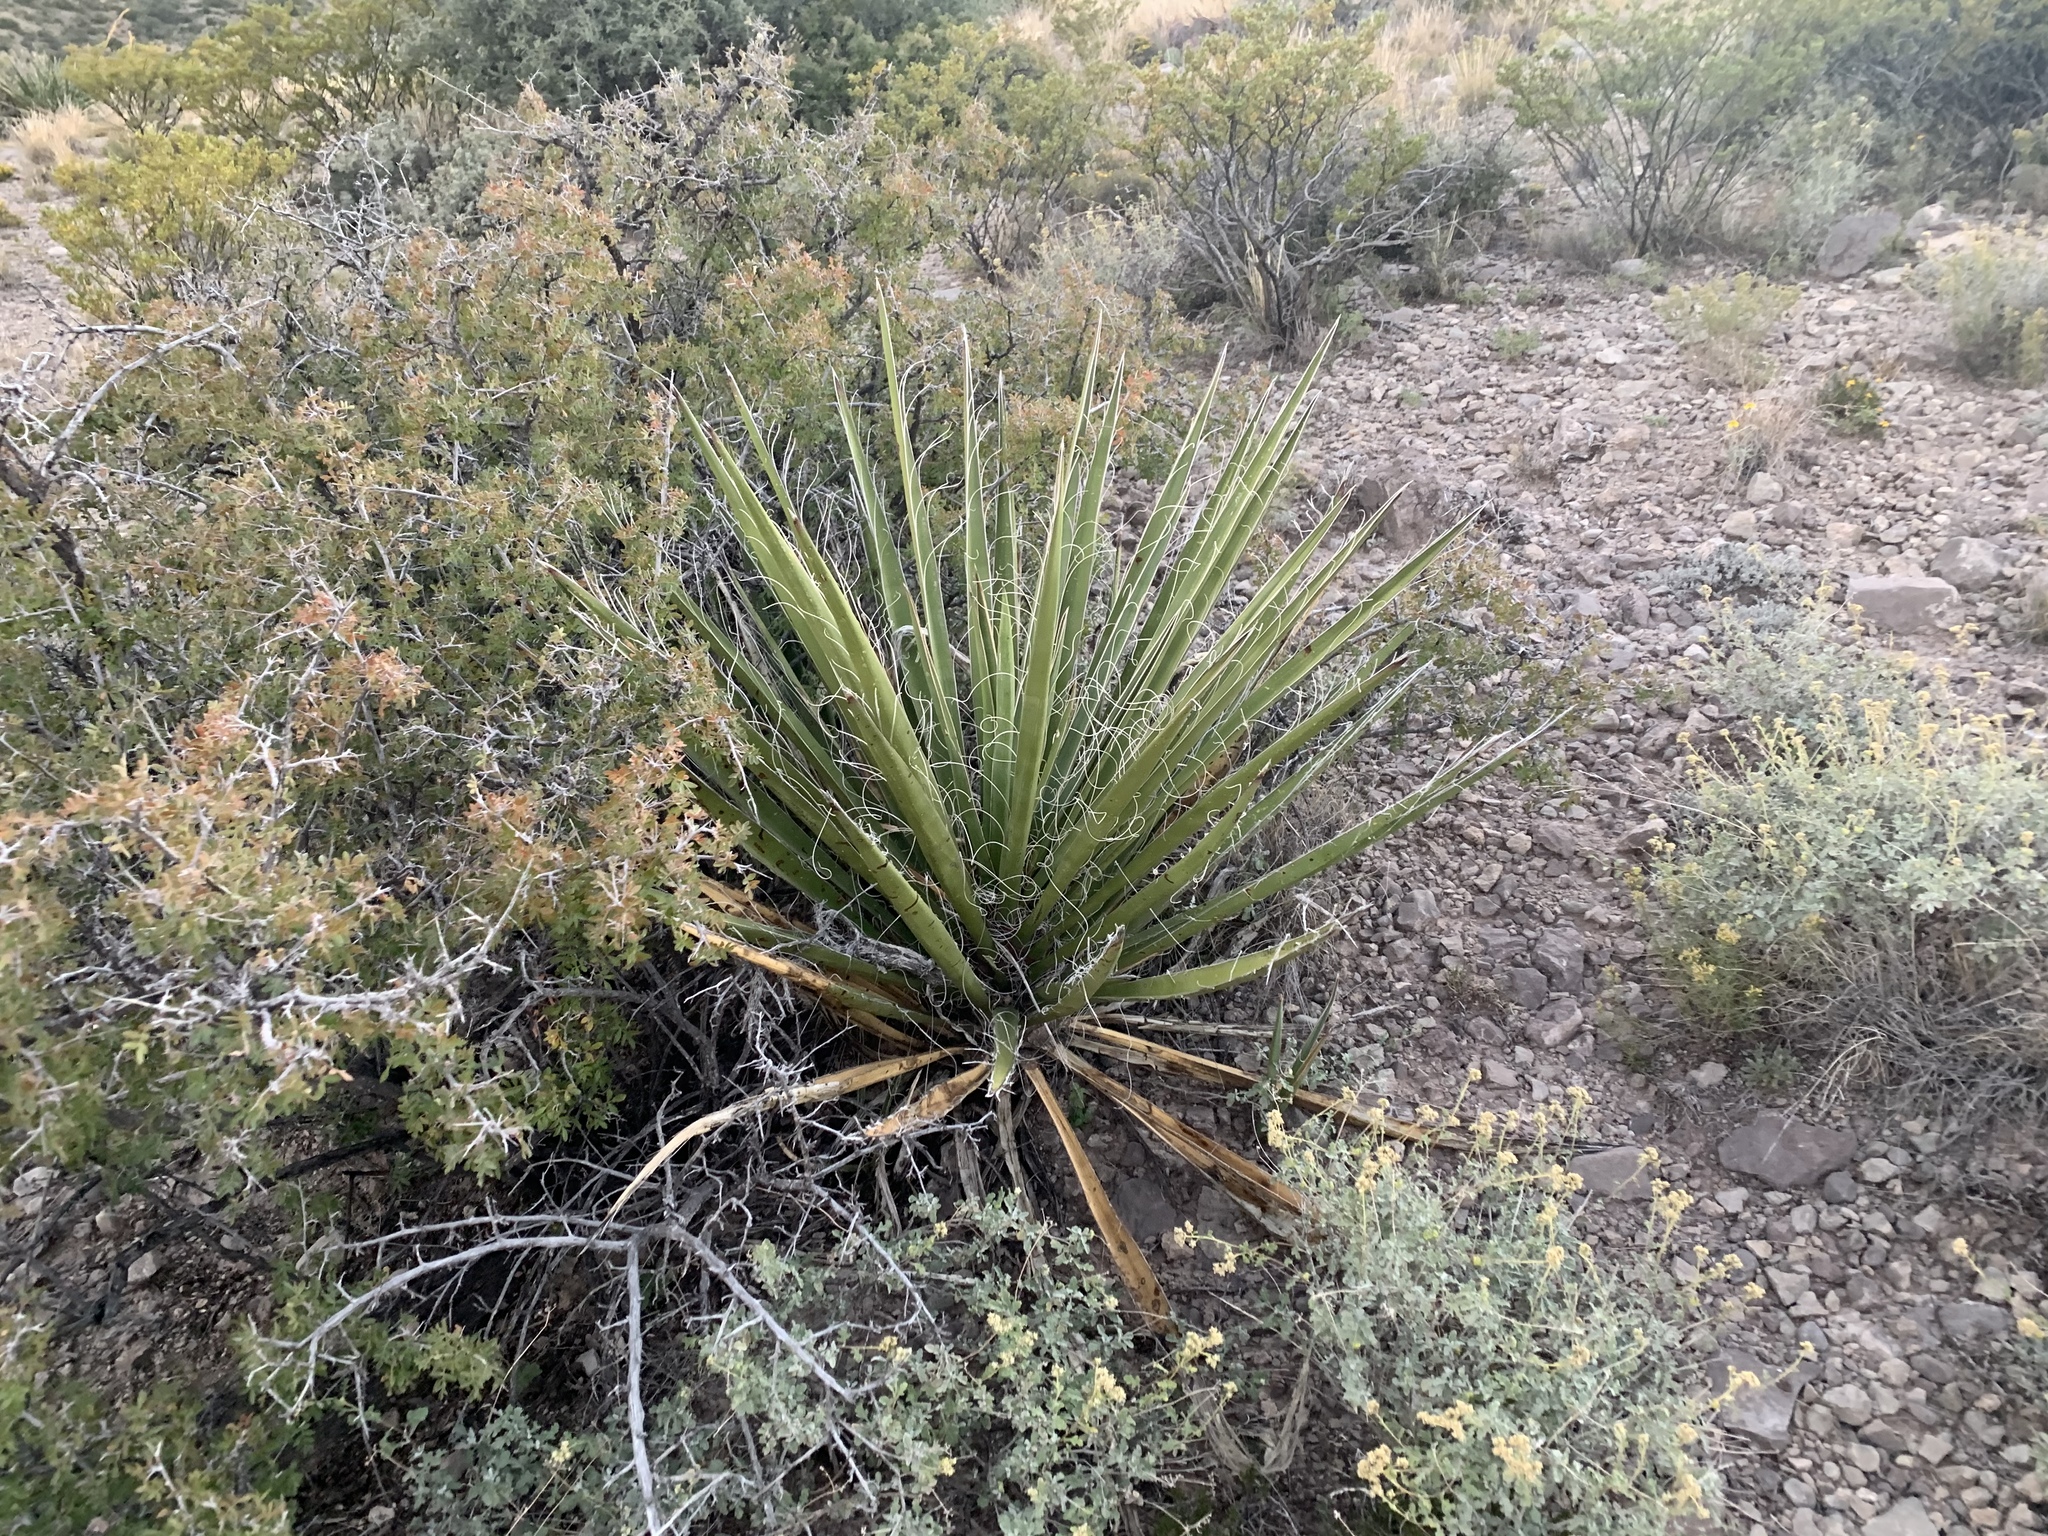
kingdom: Plantae
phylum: Tracheophyta
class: Liliopsida
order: Asparagales
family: Asparagaceae
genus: Yucca
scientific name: Yucca baccata
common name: Banana yucca
